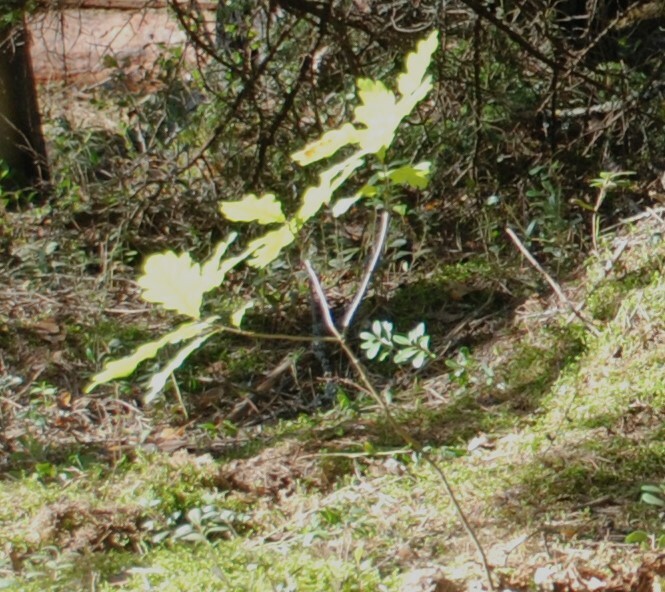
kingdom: Plantae
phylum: Tracheophyta
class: Magnoliopsida
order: Fagales
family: Fagaceae
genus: Quercus
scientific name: Quercus robur
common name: Pedunculate oak
